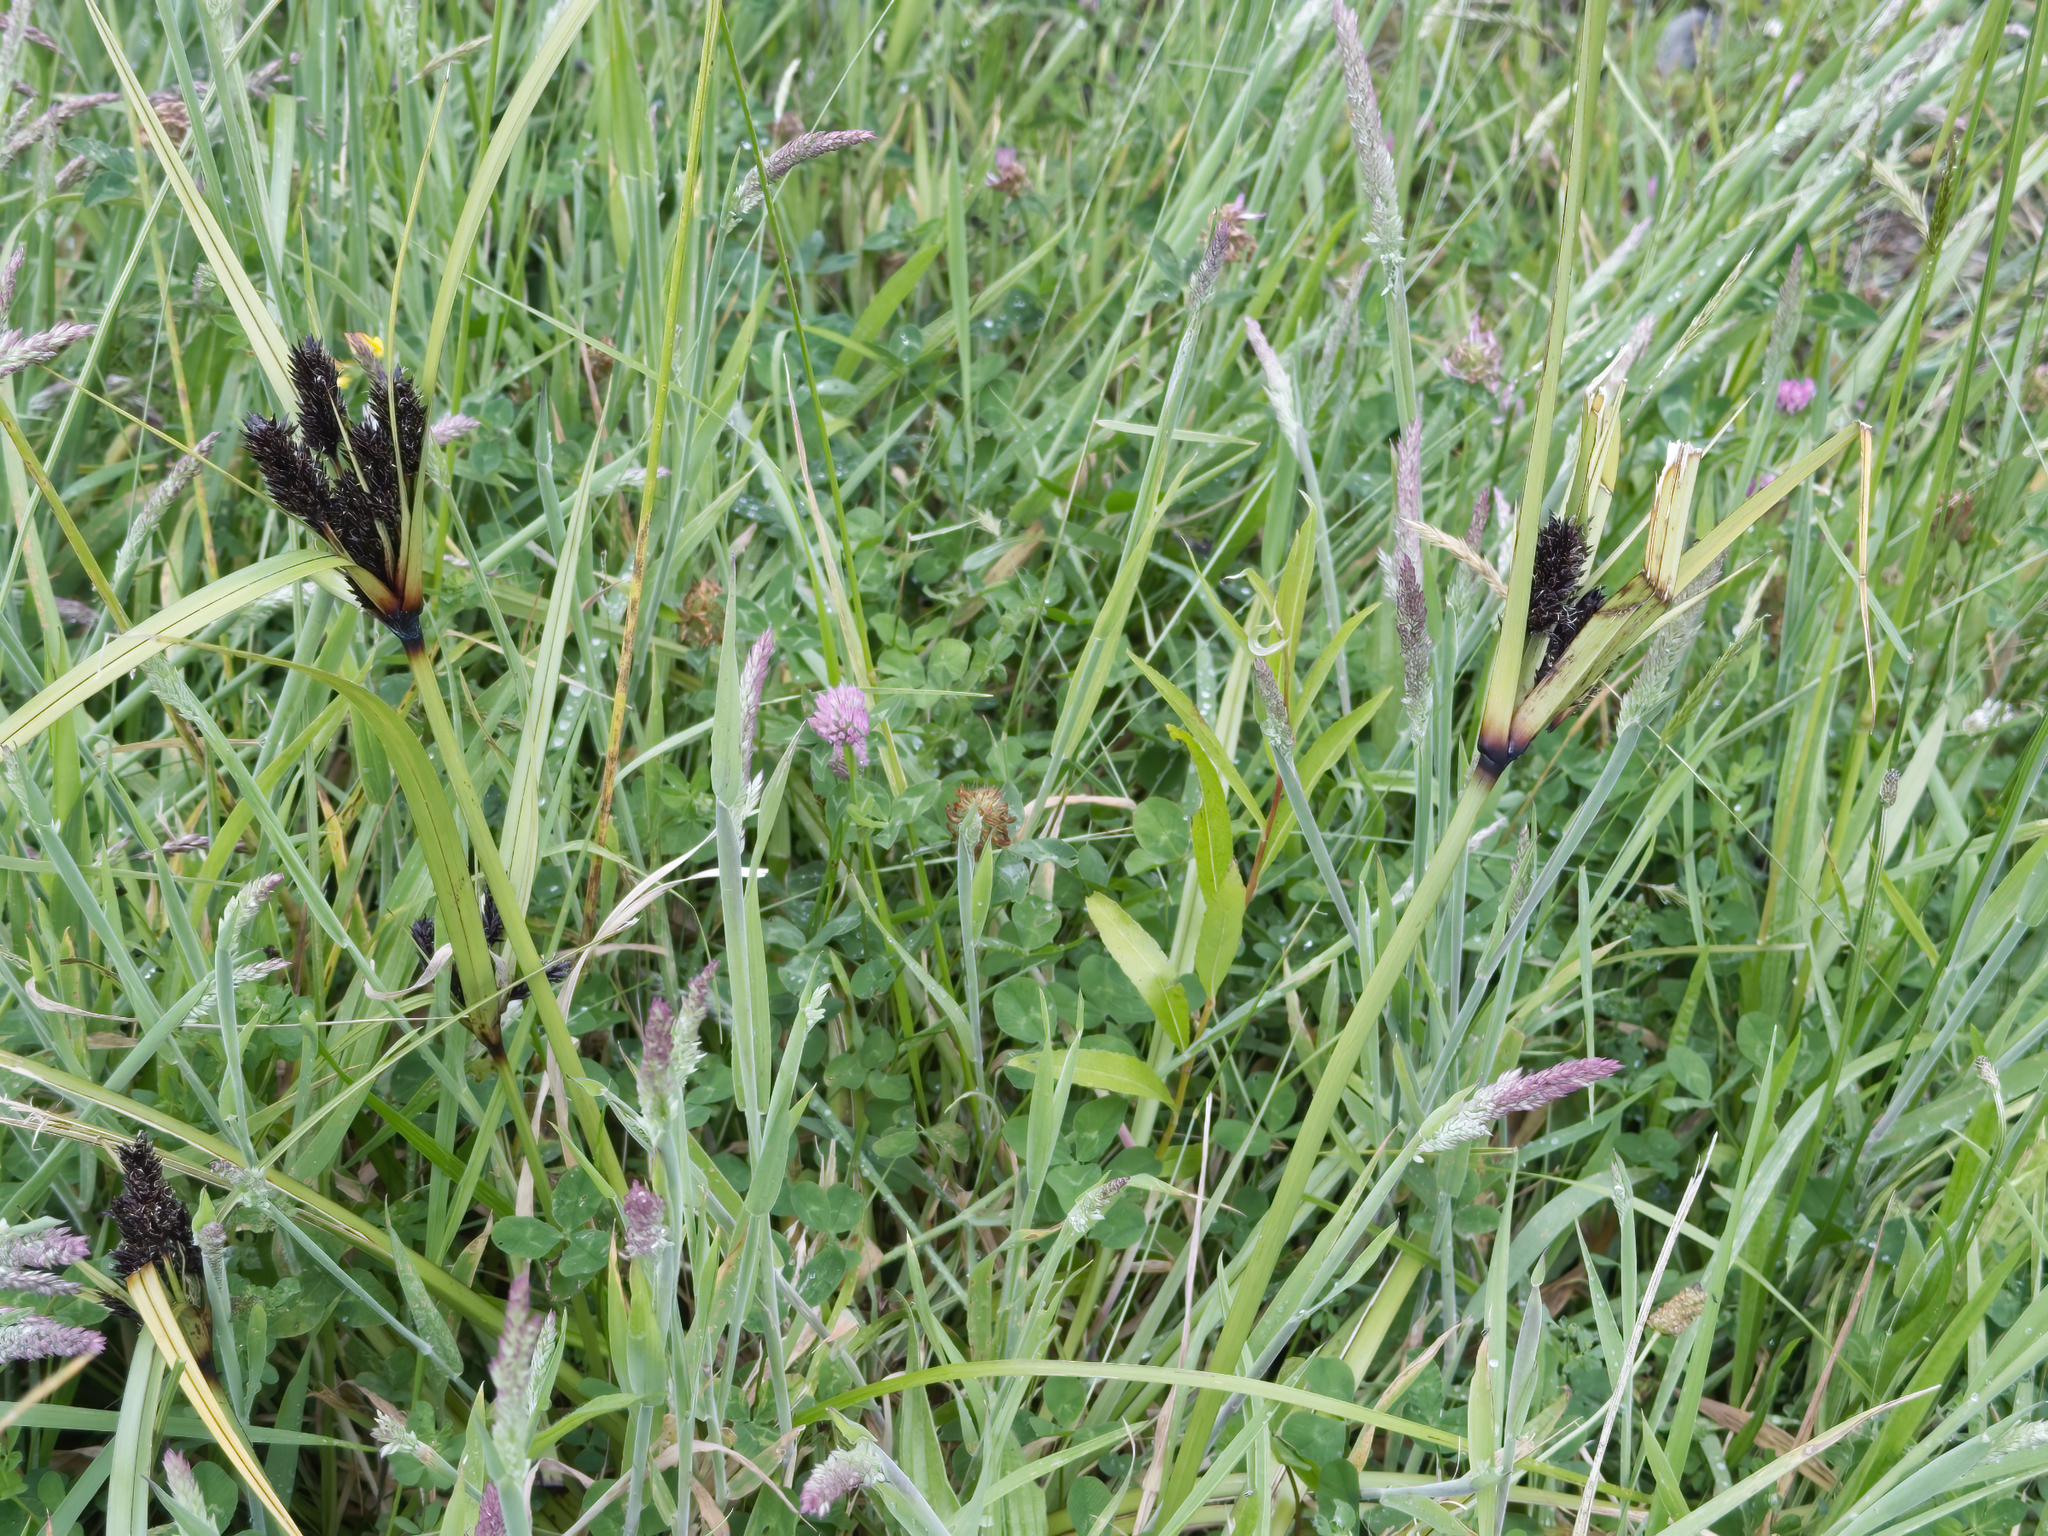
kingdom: Plantae
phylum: Tracheophyta
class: Liliopsida
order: Poales
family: Cyperaceae
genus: Cyperus
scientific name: Cyperus ustulatus
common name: Giant umbrella-sedge
